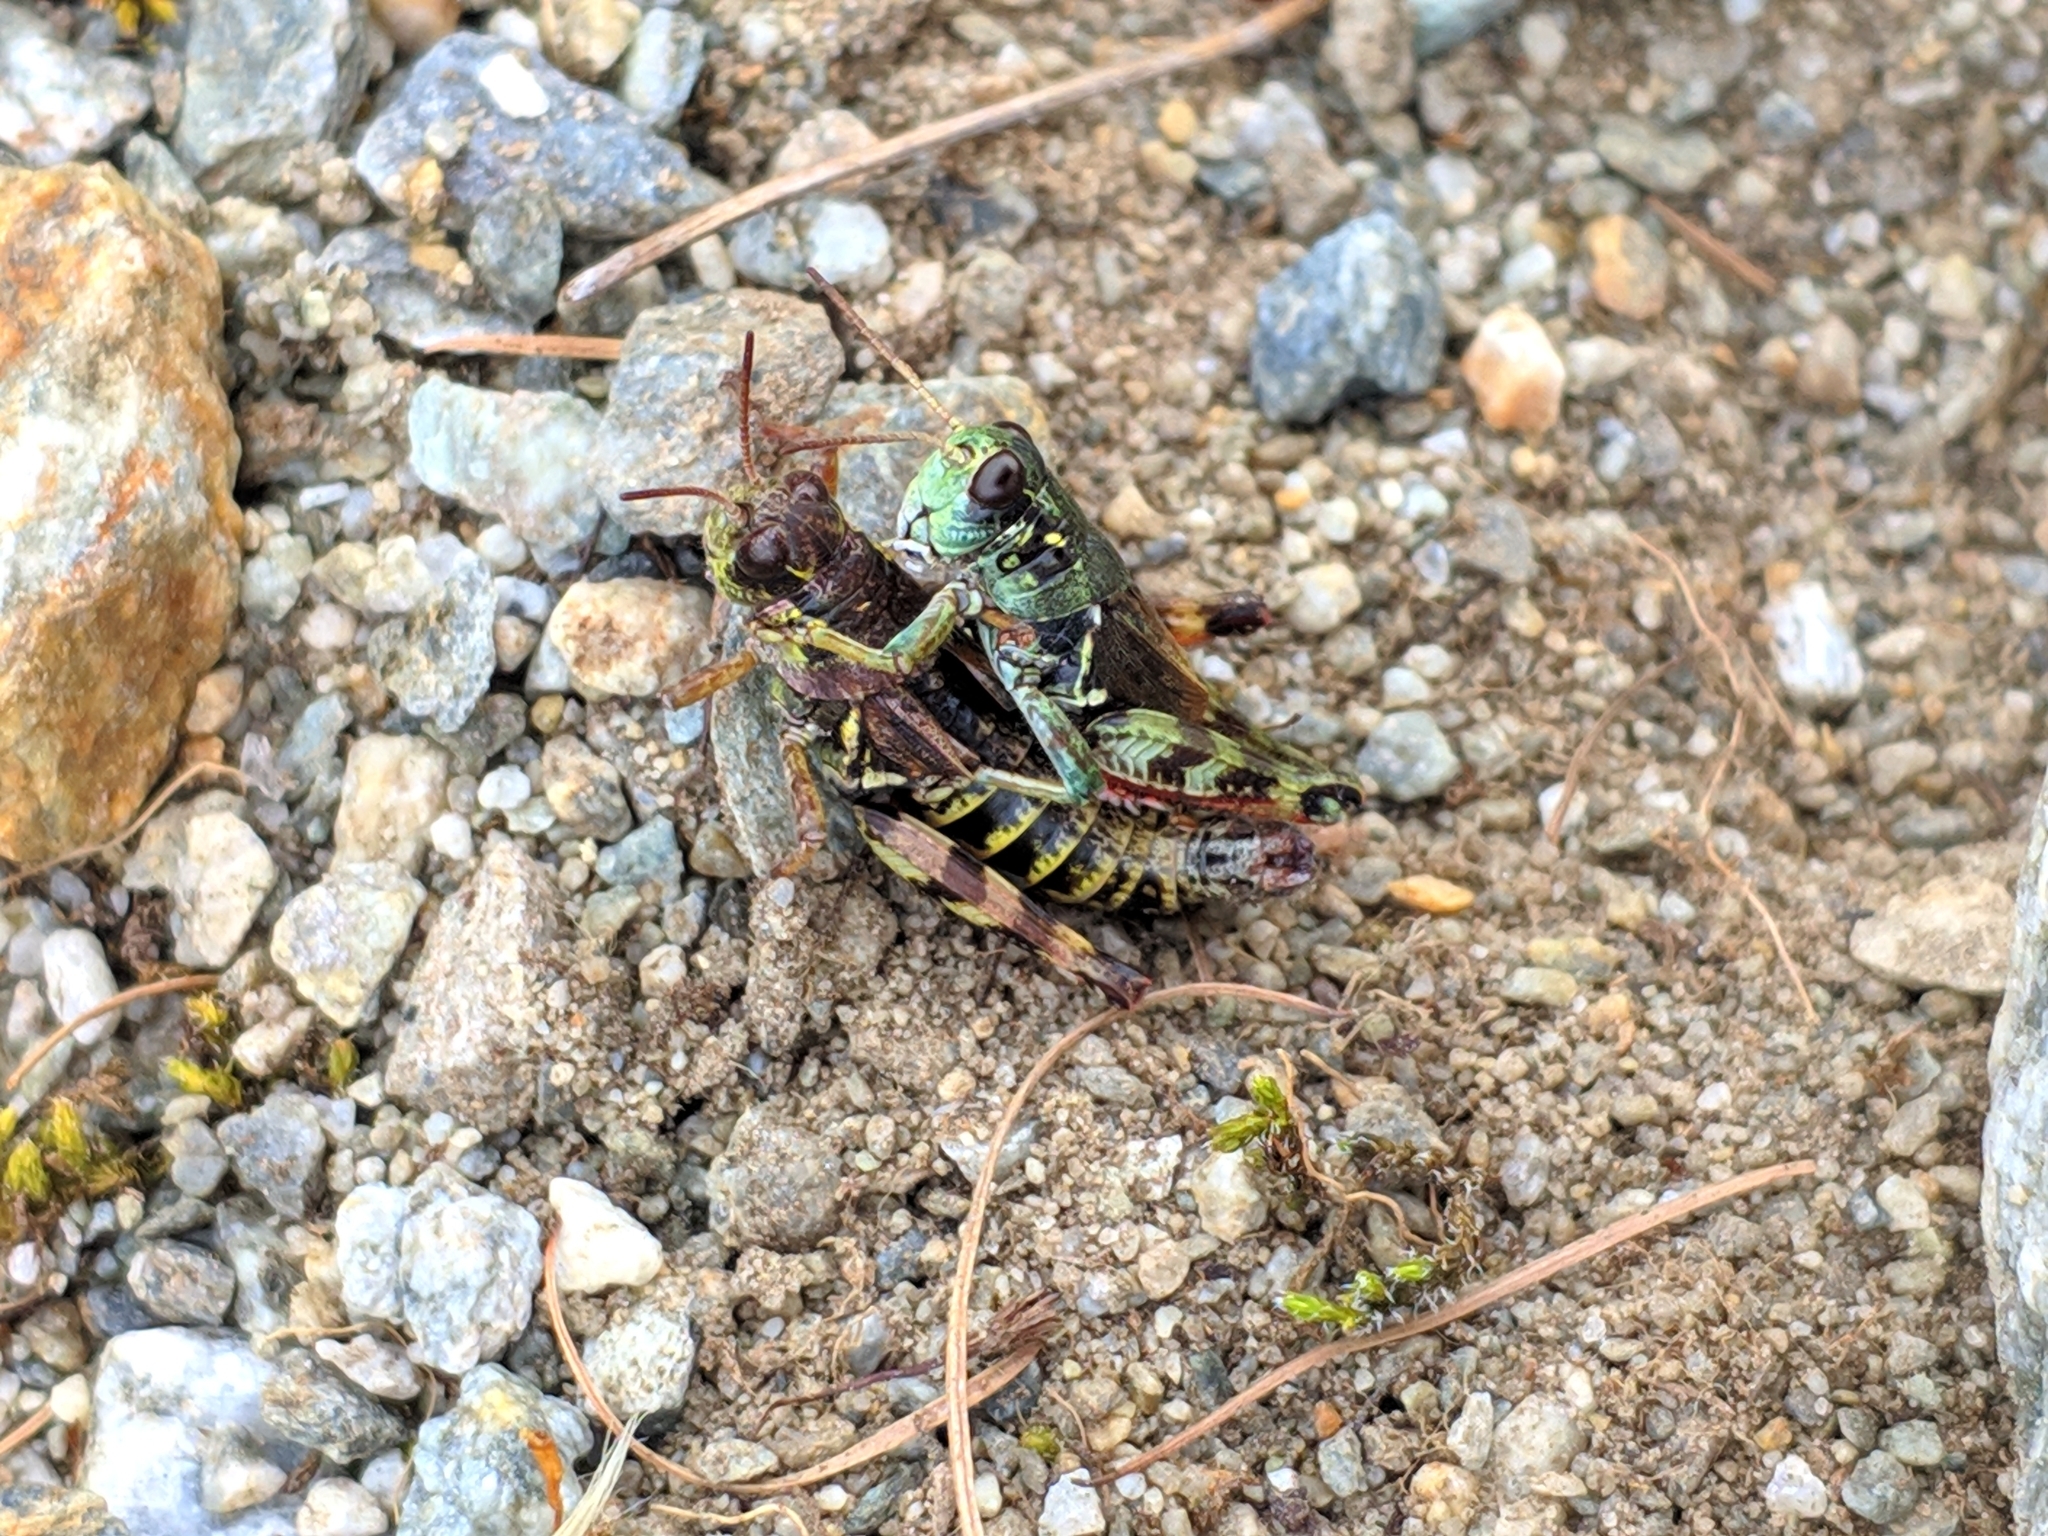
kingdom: Animalia
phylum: Arthropoda
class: Insecta
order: Orthoptera
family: Acrididae
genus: Bohemanella
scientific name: Bohemanella frigida
